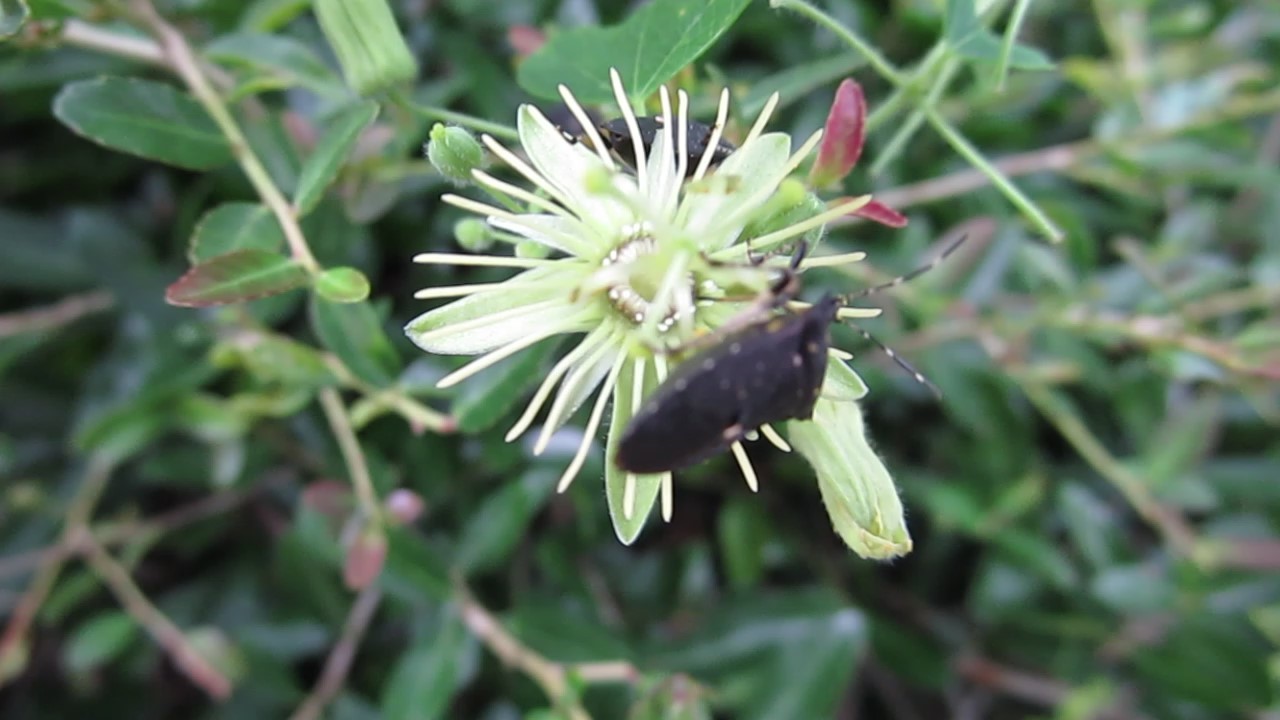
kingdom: Animalia
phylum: Arthropoda
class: Insecta
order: Hemiptera
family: Pentatomidae
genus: Proxys
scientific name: Proxys punctulatus
